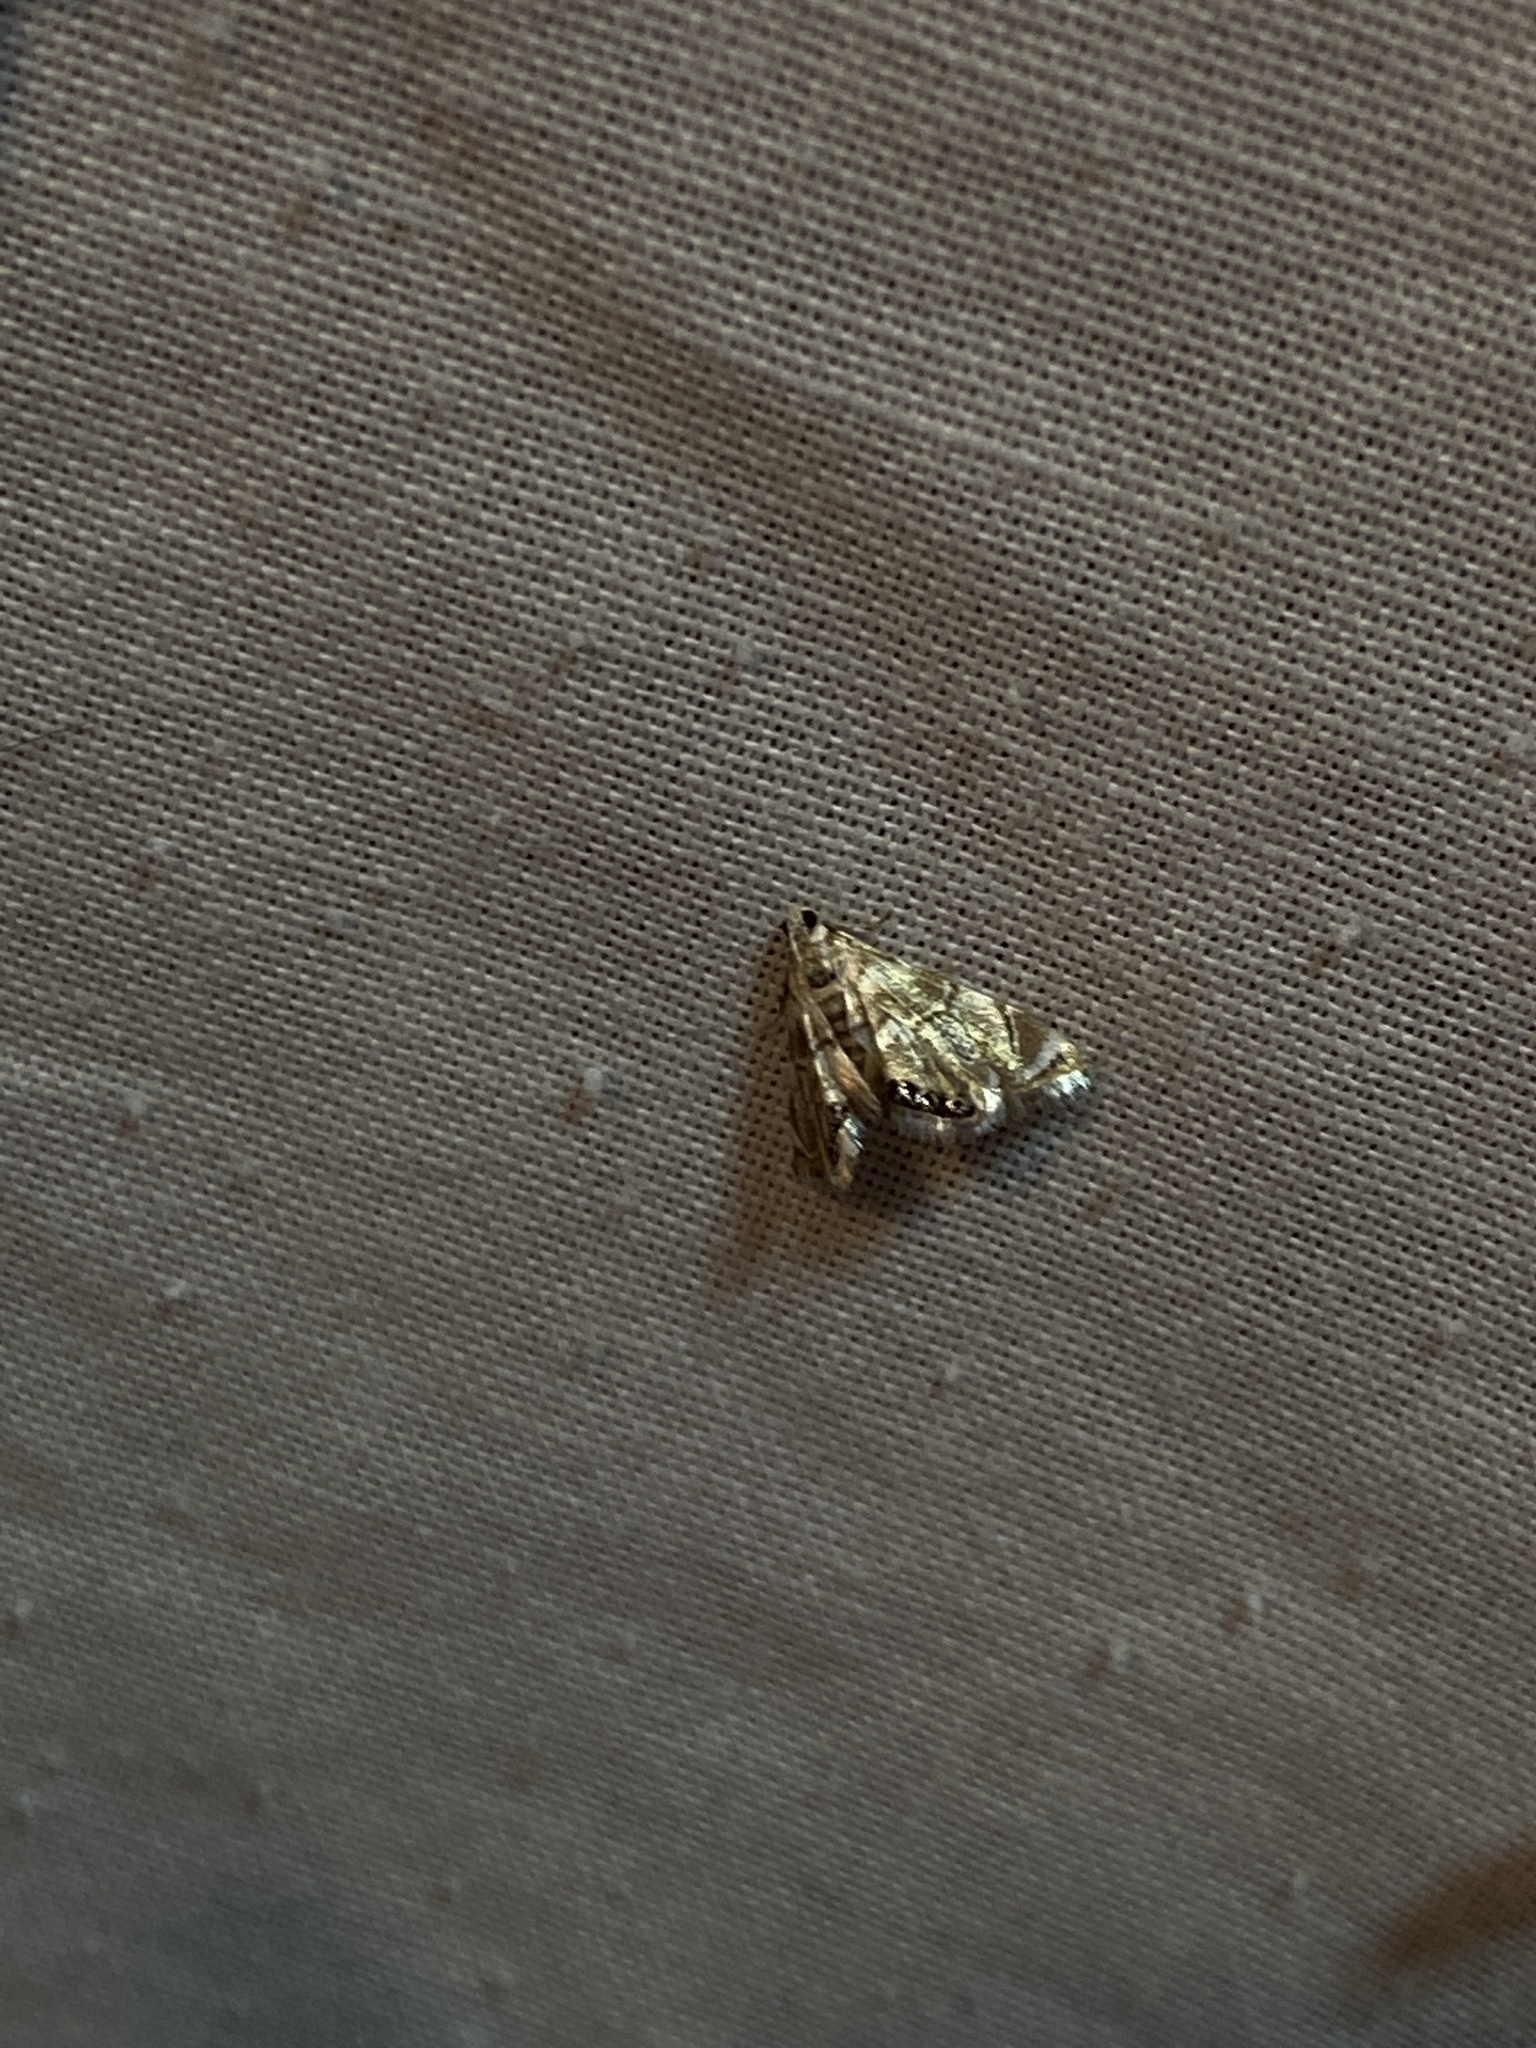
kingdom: Animalia
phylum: Arthropoda
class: Insecta
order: Lepidoptera
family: Crambidae
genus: Eoparargyractis
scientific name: Eoparargyractis plevie
